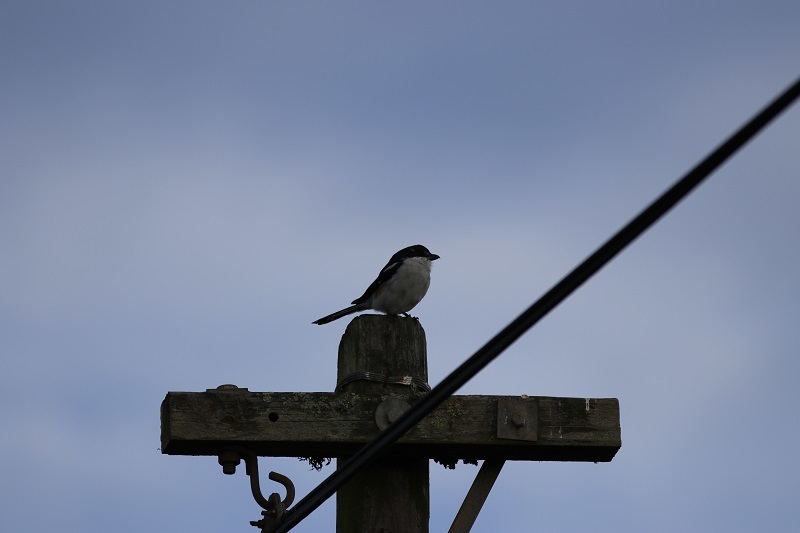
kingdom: Animalia
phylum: Chordata
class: Aves
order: Passeriformes
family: Laniidae
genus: Lanius
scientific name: Lanius collaris
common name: Southern fiscal
